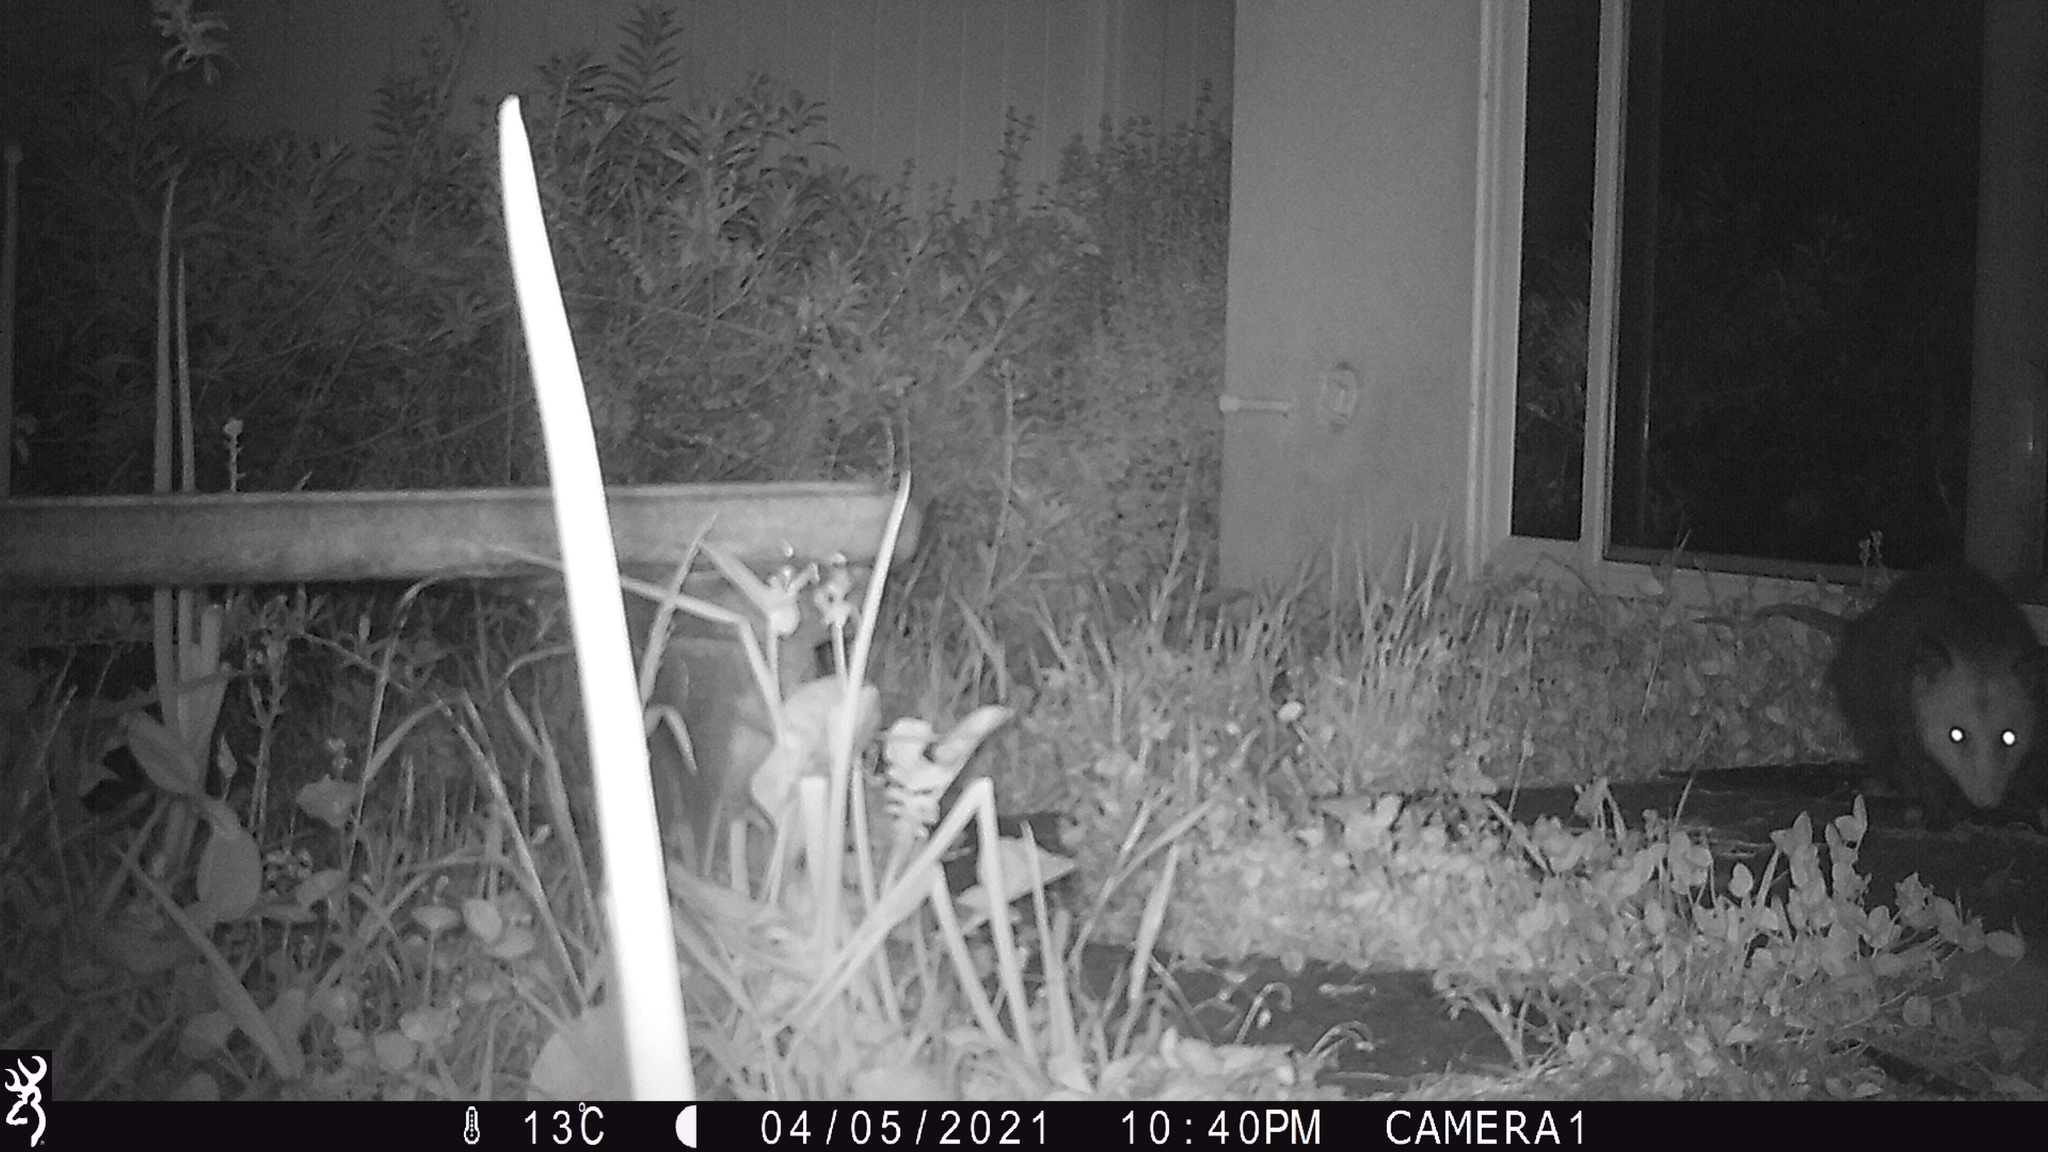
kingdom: Animalia
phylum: Chordata
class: Mammalia
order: Didelphimorphia
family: Didelphidae
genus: Didelphis
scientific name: Didelphis virginiana
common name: Virginia opossum
